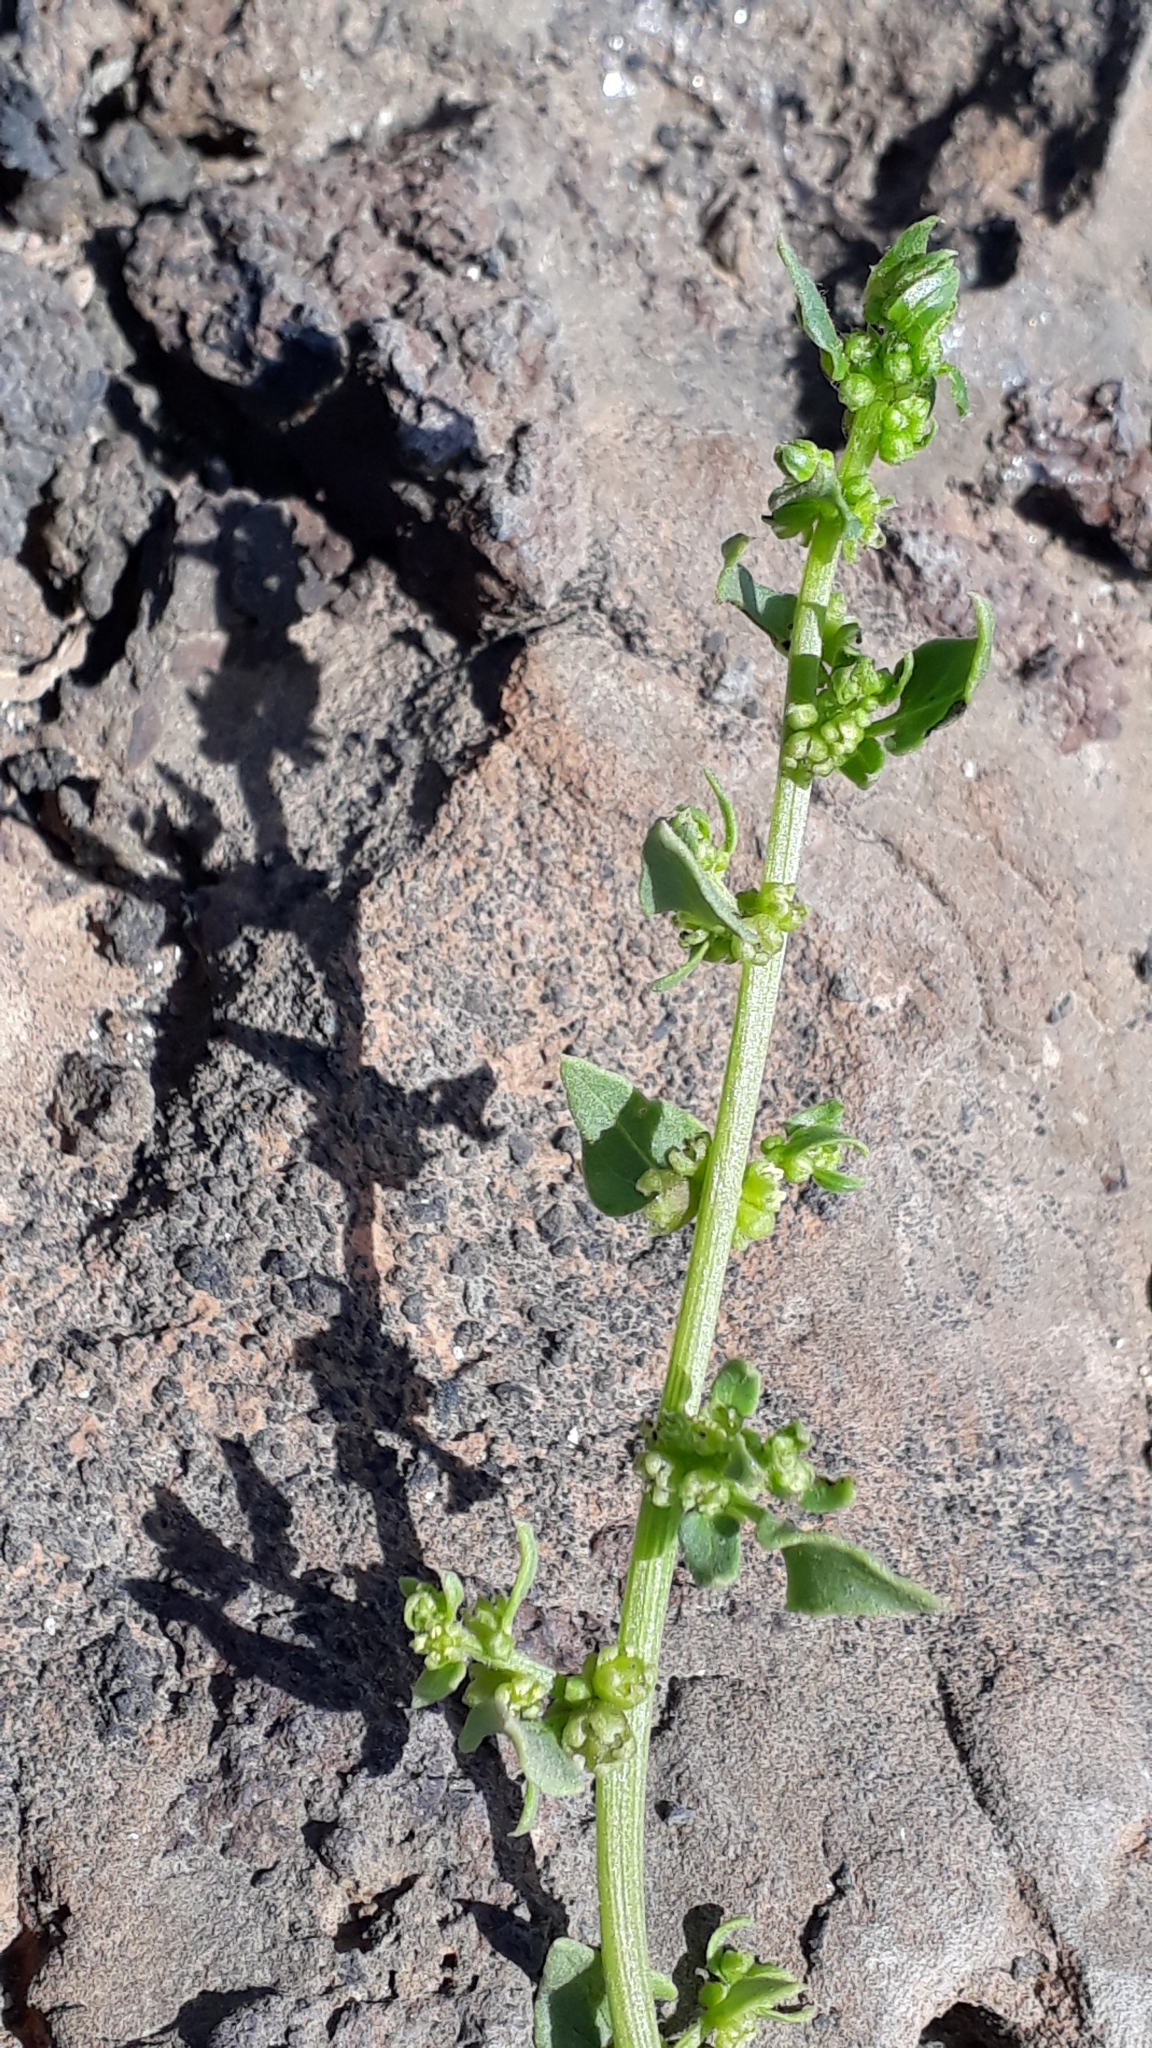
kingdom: Plantae
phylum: Tracheophyta
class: Magnoliopsida
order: Caryophyllales
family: Amaranthaceae
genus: Patellifolia
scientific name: Patellifolia procumbens
